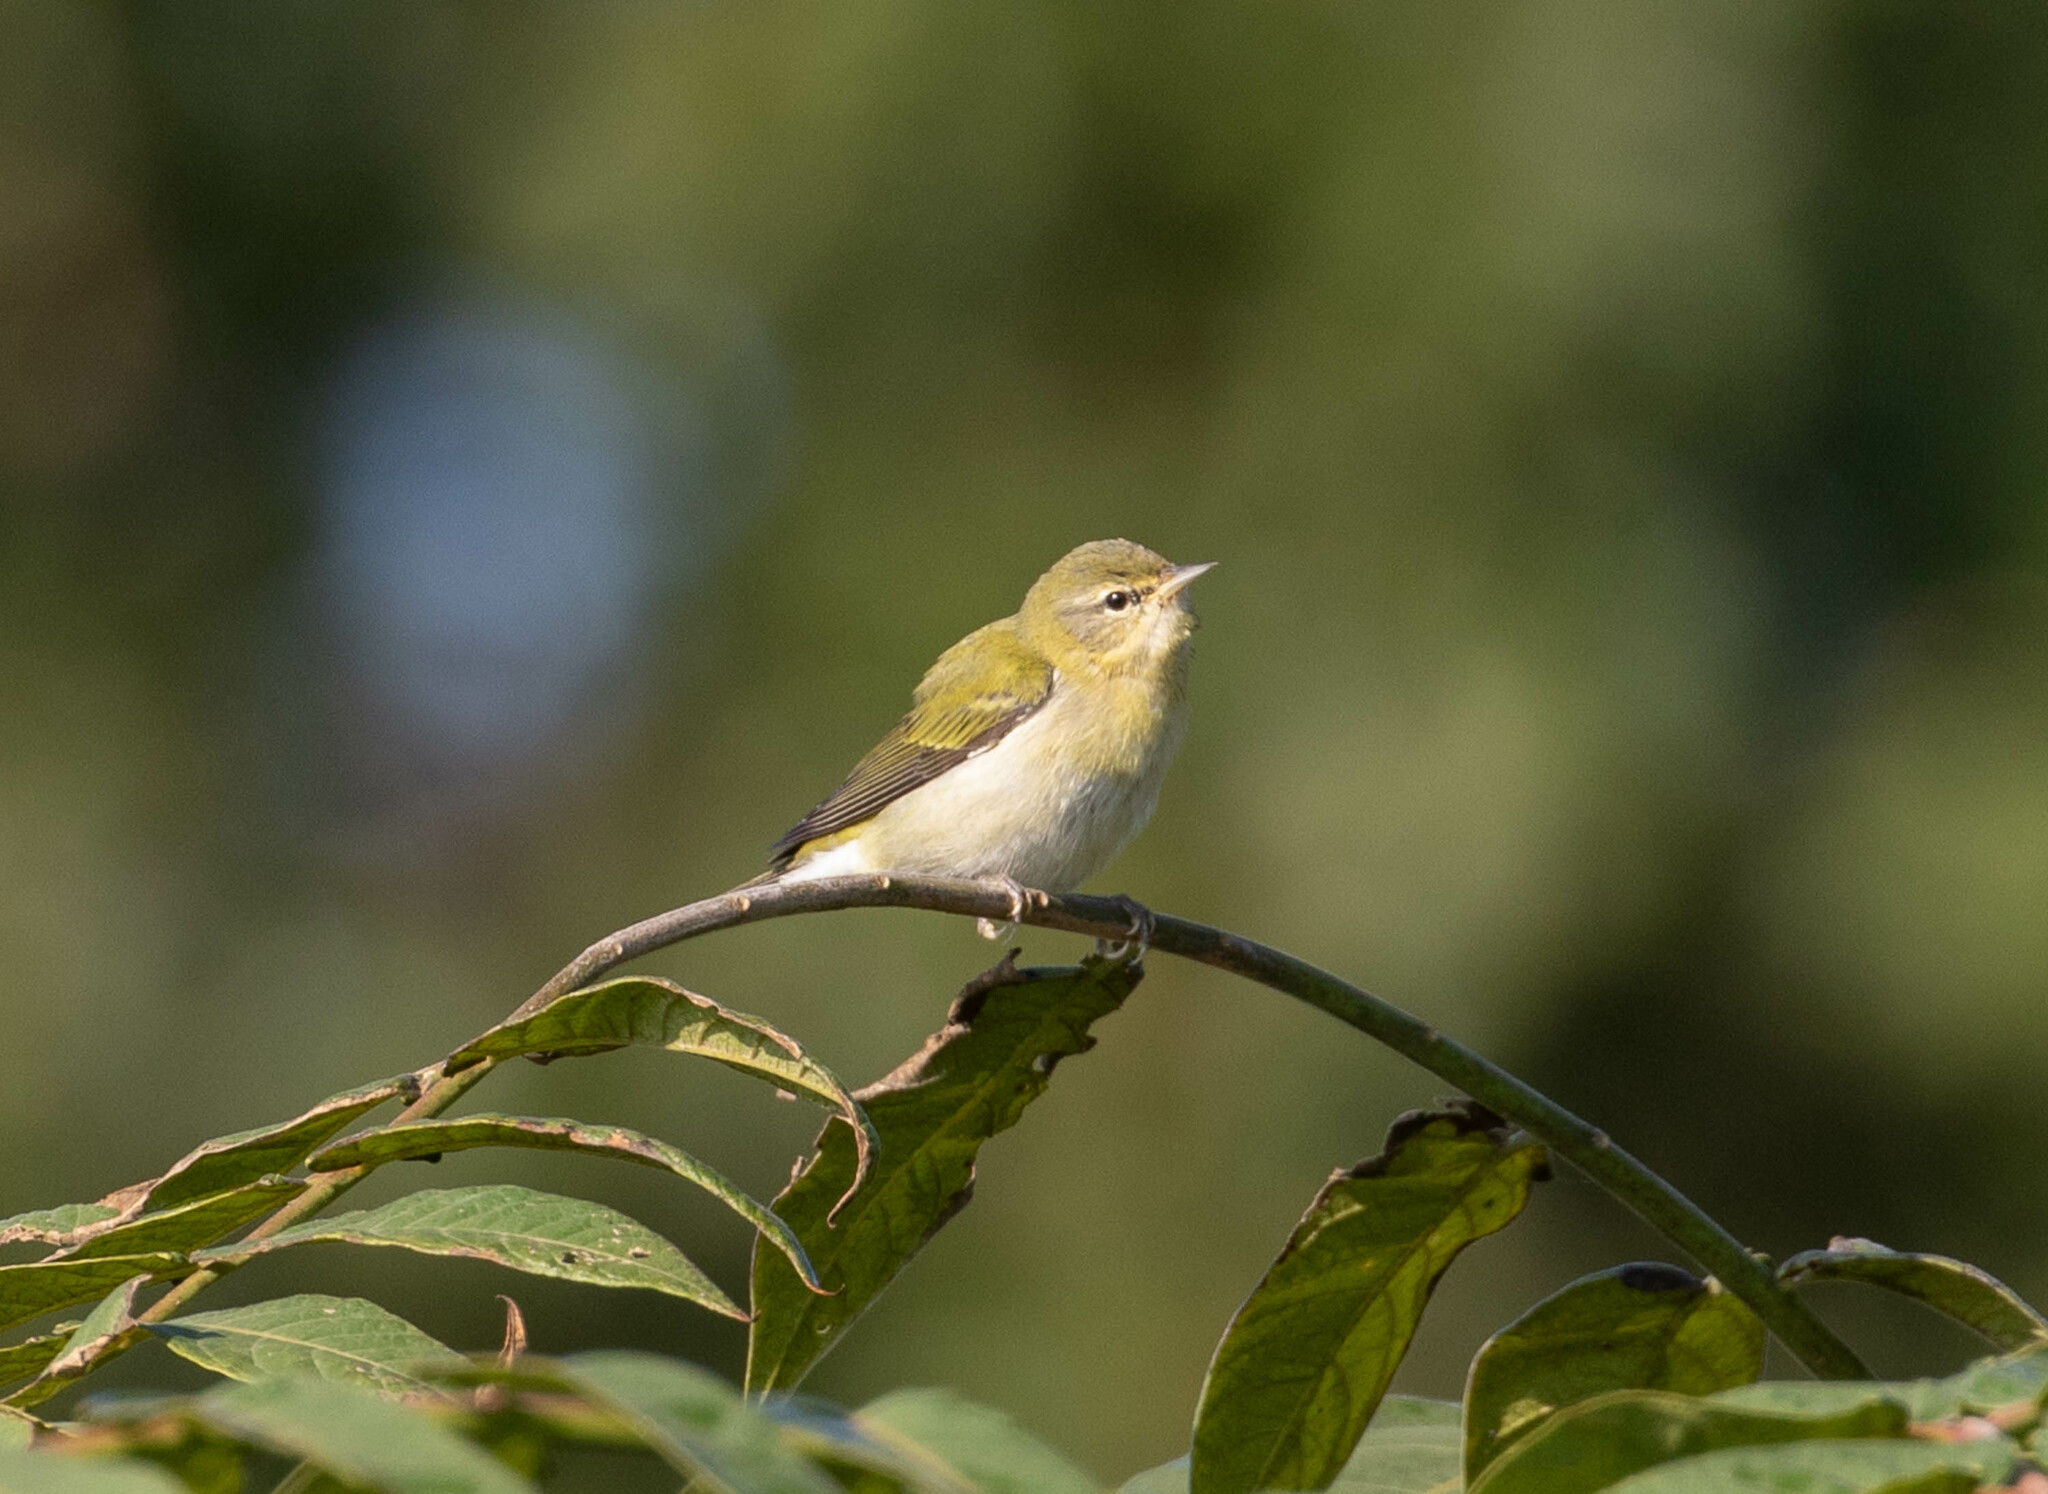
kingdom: Animalia
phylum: Chordata
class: Aves
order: Passeriformes
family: Parulidae
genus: Leiothlypis
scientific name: Leiothlypis peregrina
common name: Tennessee warbler
